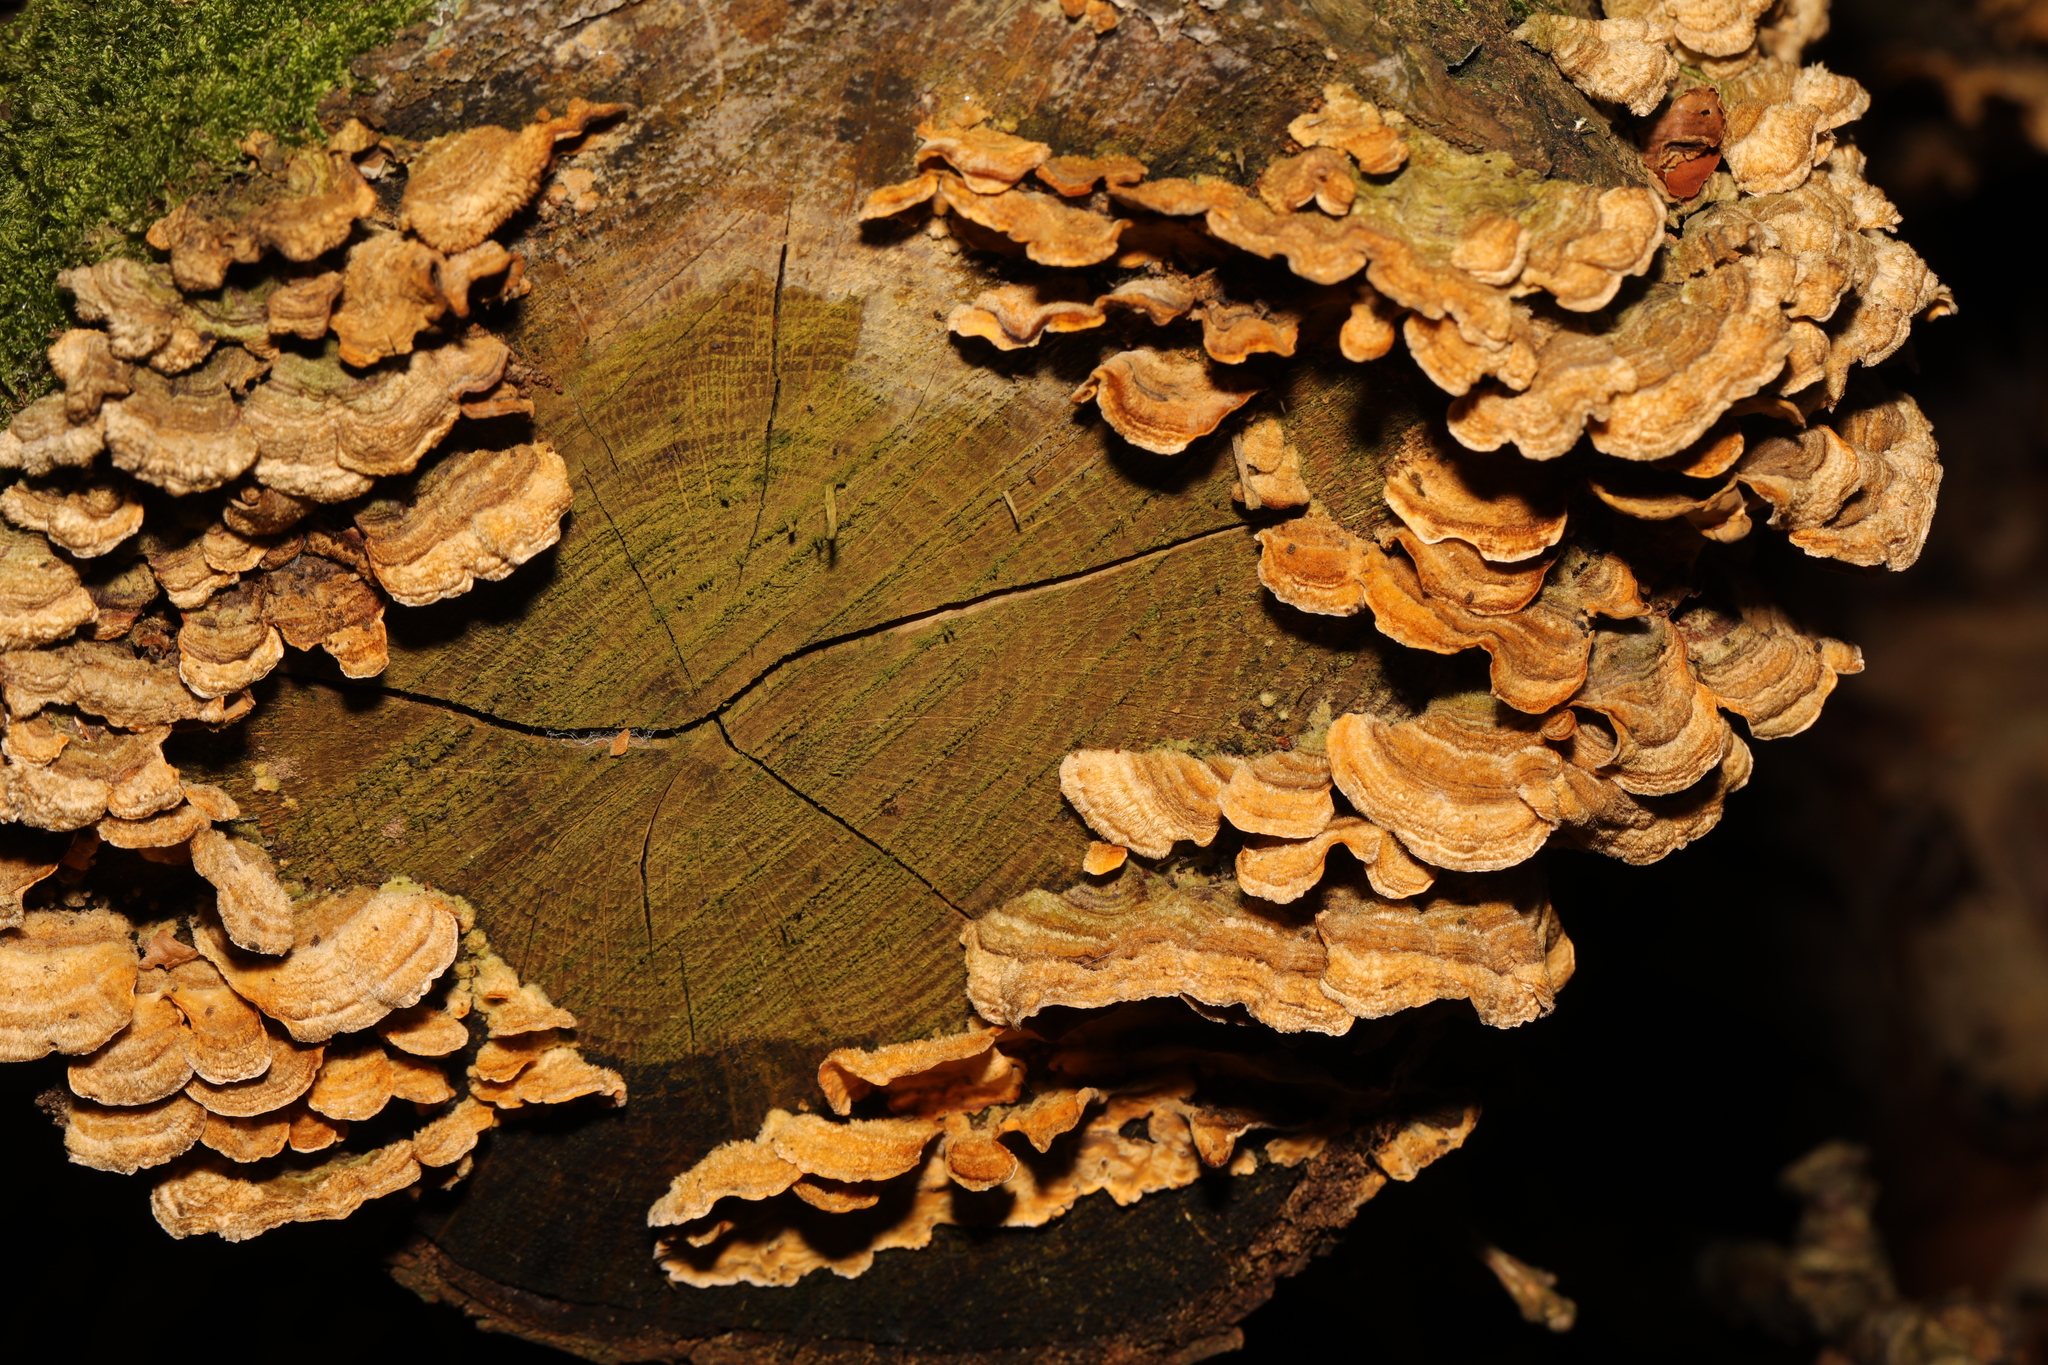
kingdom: Fungi
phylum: Basidiomycota
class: Agaricomycetes
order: Russulales
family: Stereaceae
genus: Stereum
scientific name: Stereum hirsutum
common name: Hairy curtain crust
